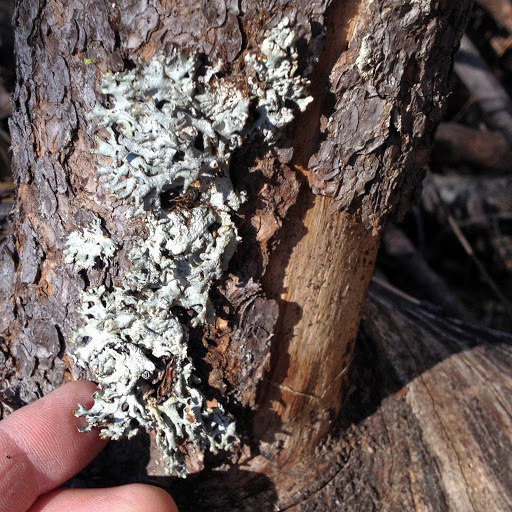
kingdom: Fungi
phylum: Ascomycota
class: Lecanoromycetes
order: Lecanorales
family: Parmeliaceae
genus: Hypogymnia
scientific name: Hypogymnia imshaugii
